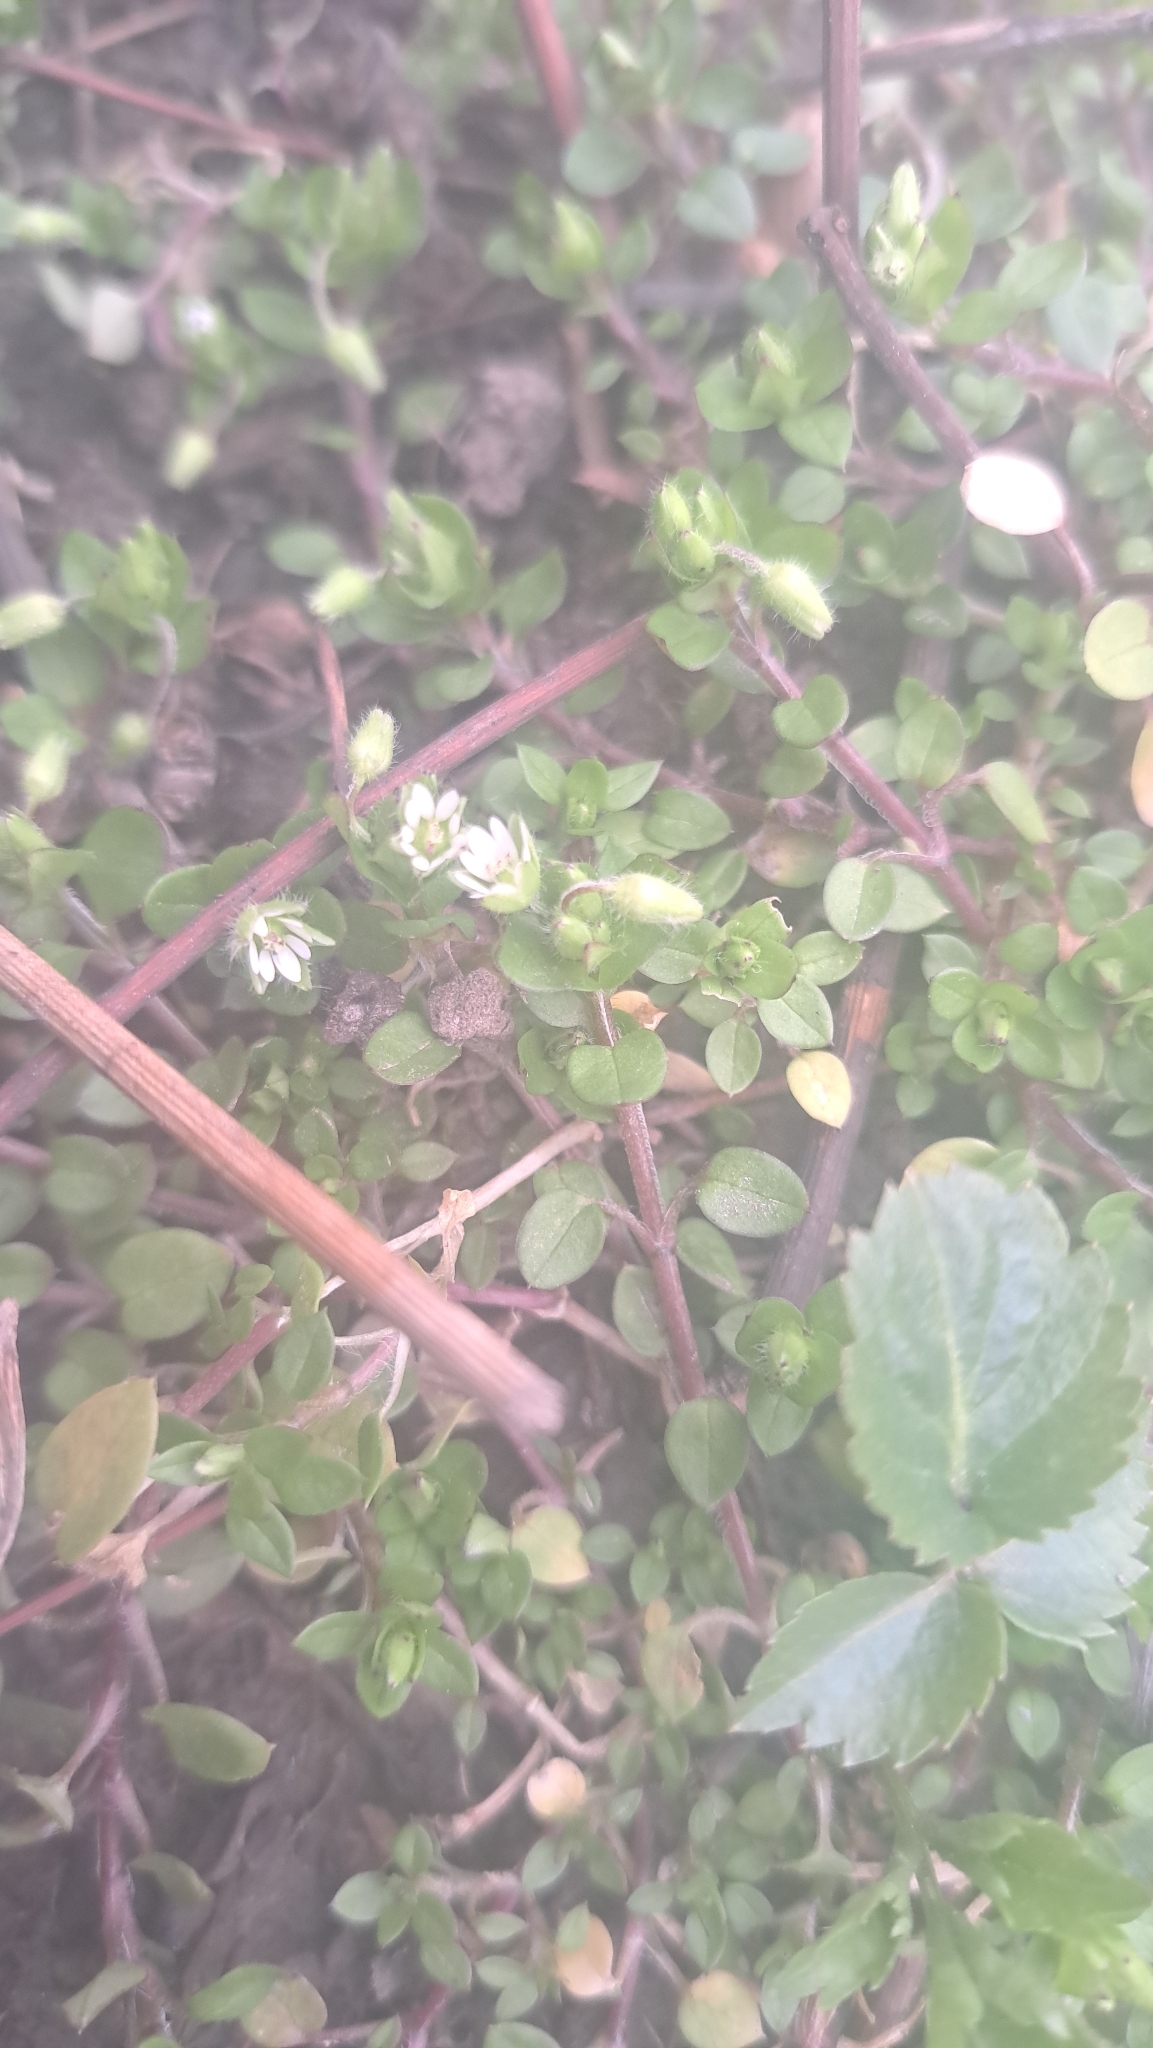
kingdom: Plantae
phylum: Tracheophyta
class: Magnoliopsida
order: Caryophyllales
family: Caryophyllaceae
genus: Stellaria
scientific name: Stellaria media
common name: Common chickweed
